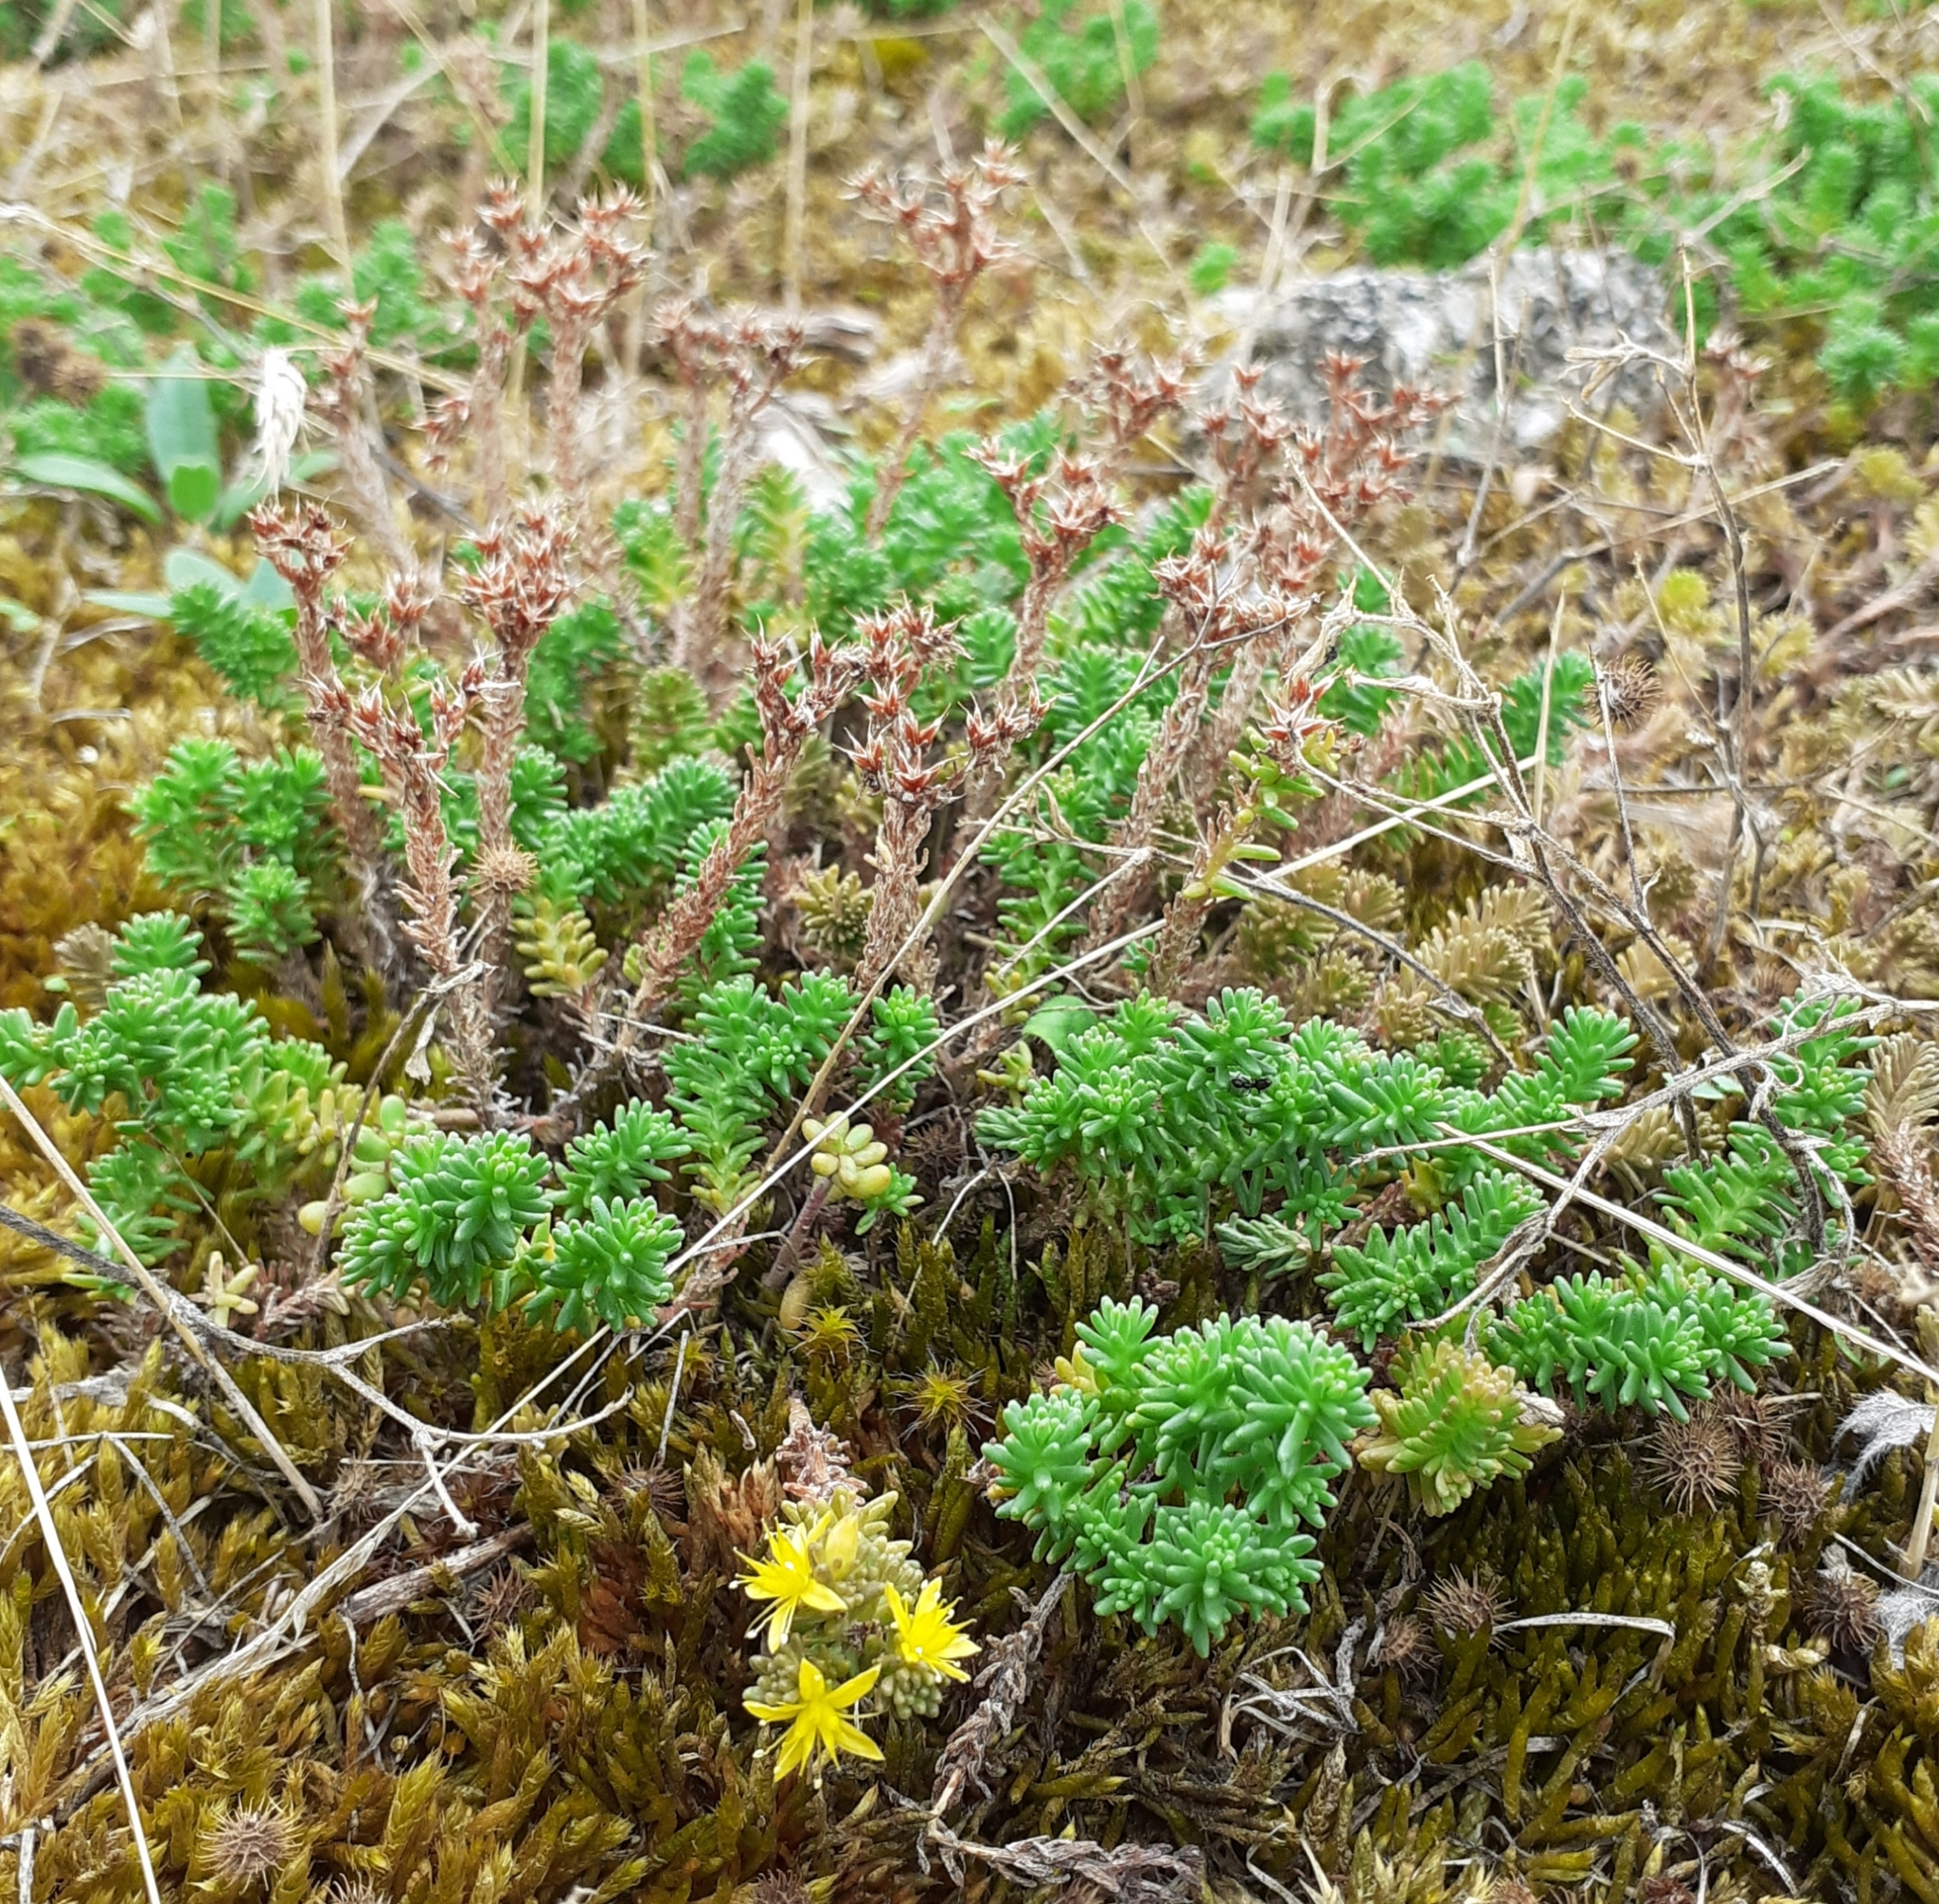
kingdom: Plantae
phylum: Tracheophyta
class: Magnoliopsida
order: Saxifragales
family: Crassulaceae
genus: Sedum
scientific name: Sedum sexangulare
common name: Tasteless stonecrop
